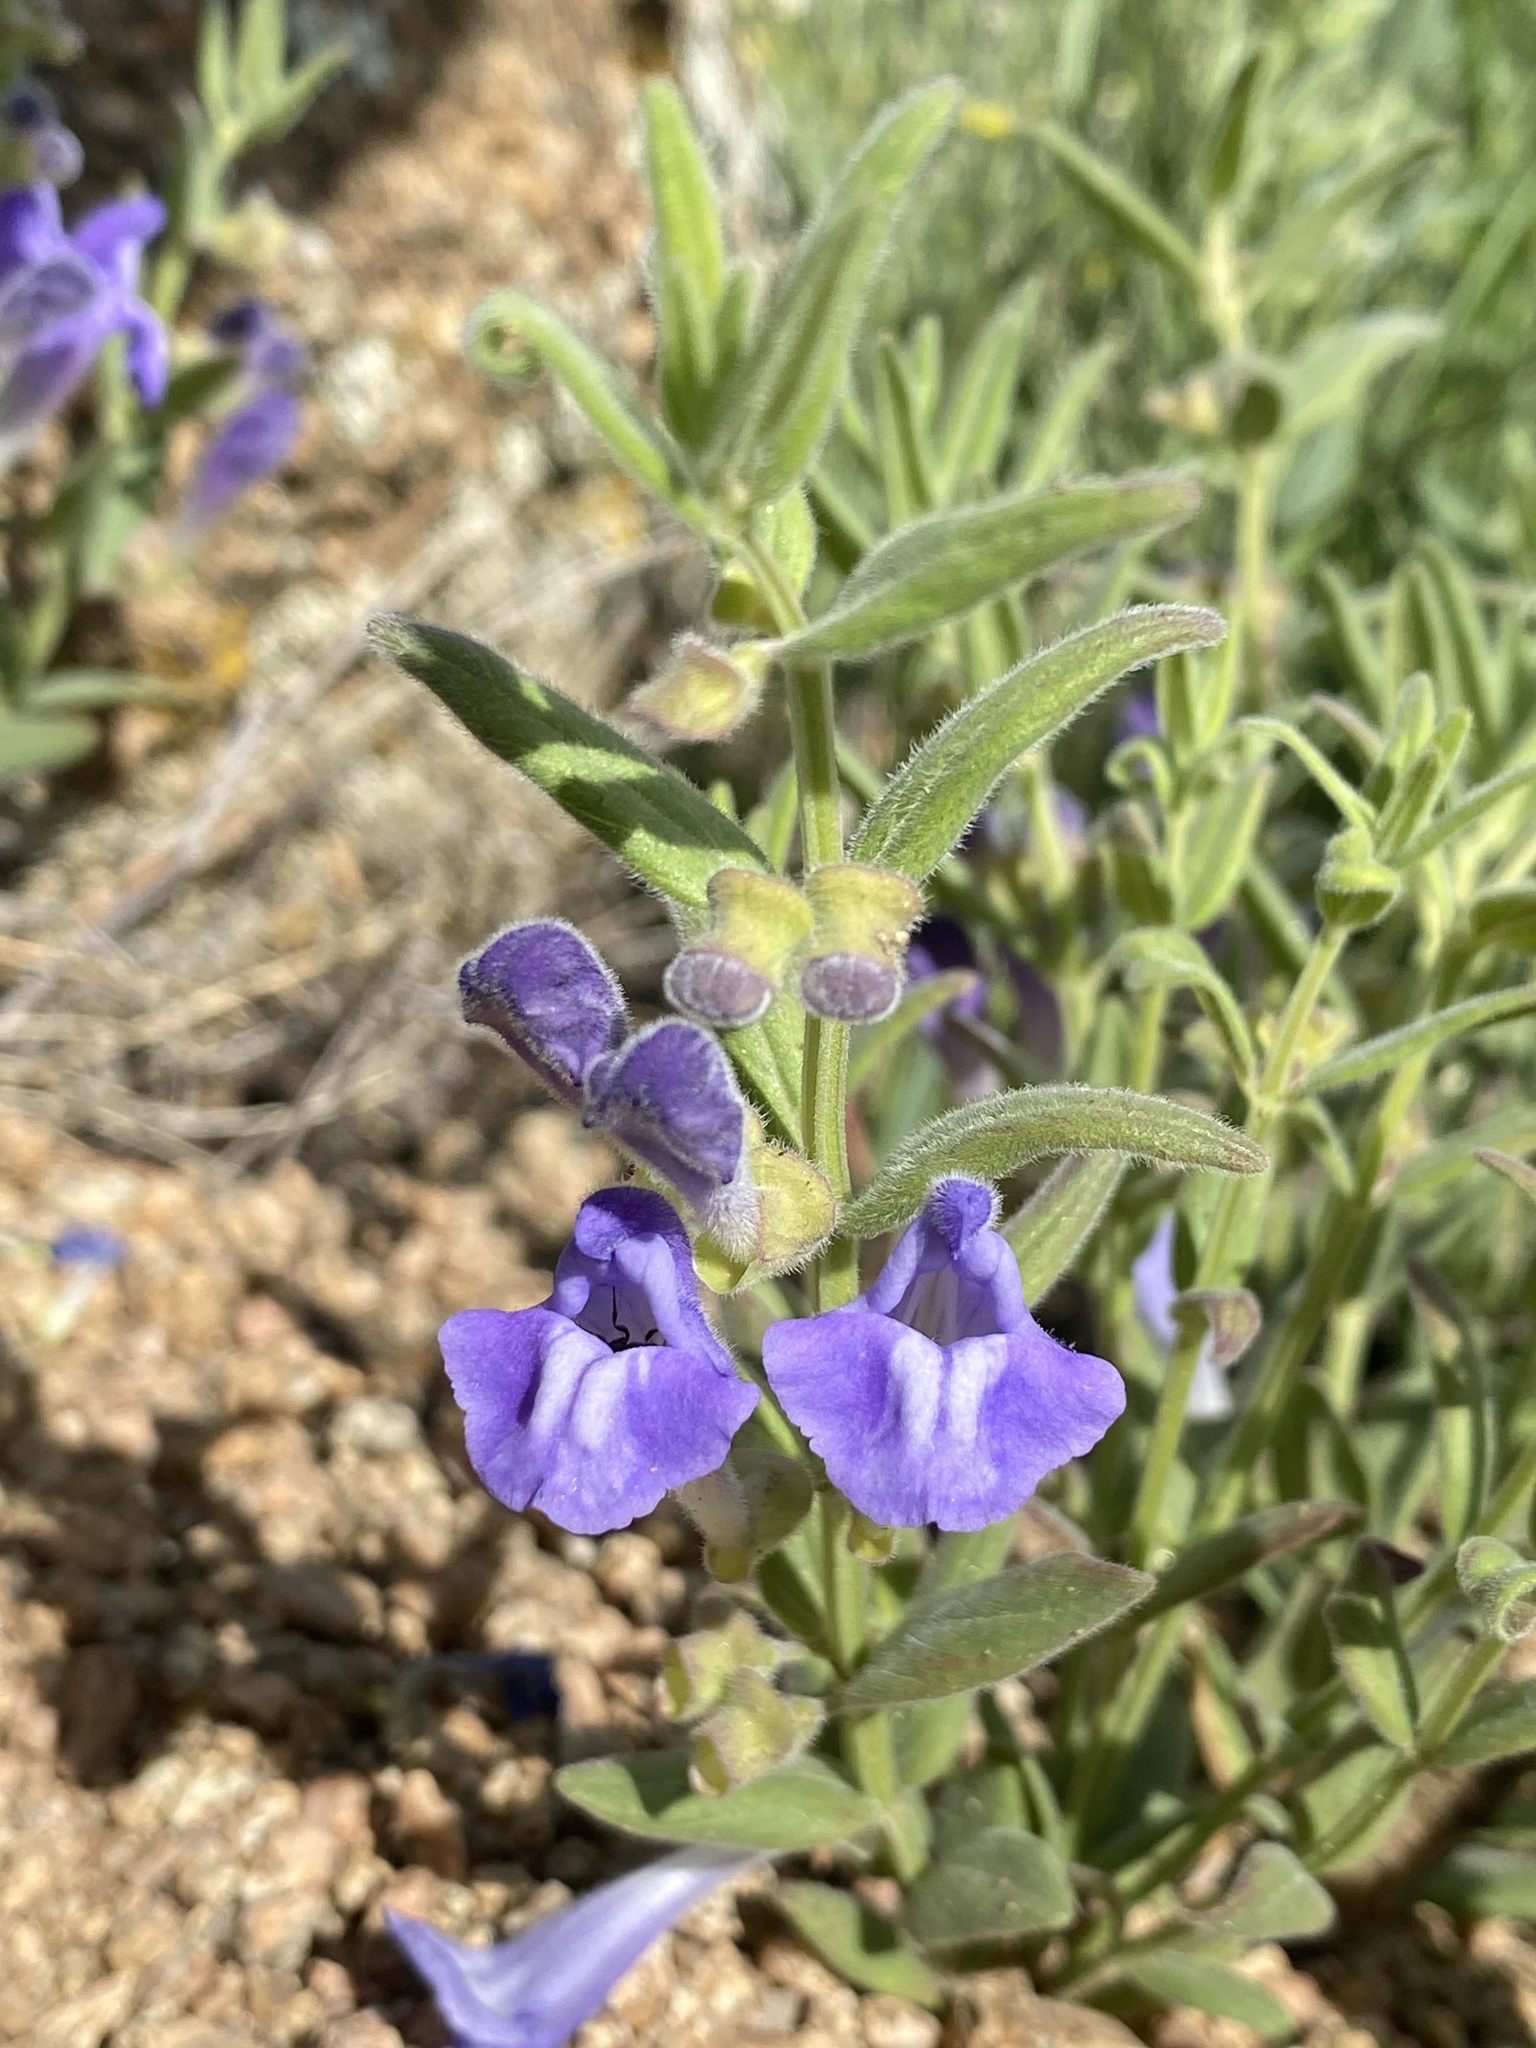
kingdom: Plantae
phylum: Tracheophyta
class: Magnoliopsida
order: Lamiales
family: Lamiaceae
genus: Scutellaria
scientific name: Scutellaria brittonii
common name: Britton's skullcap
